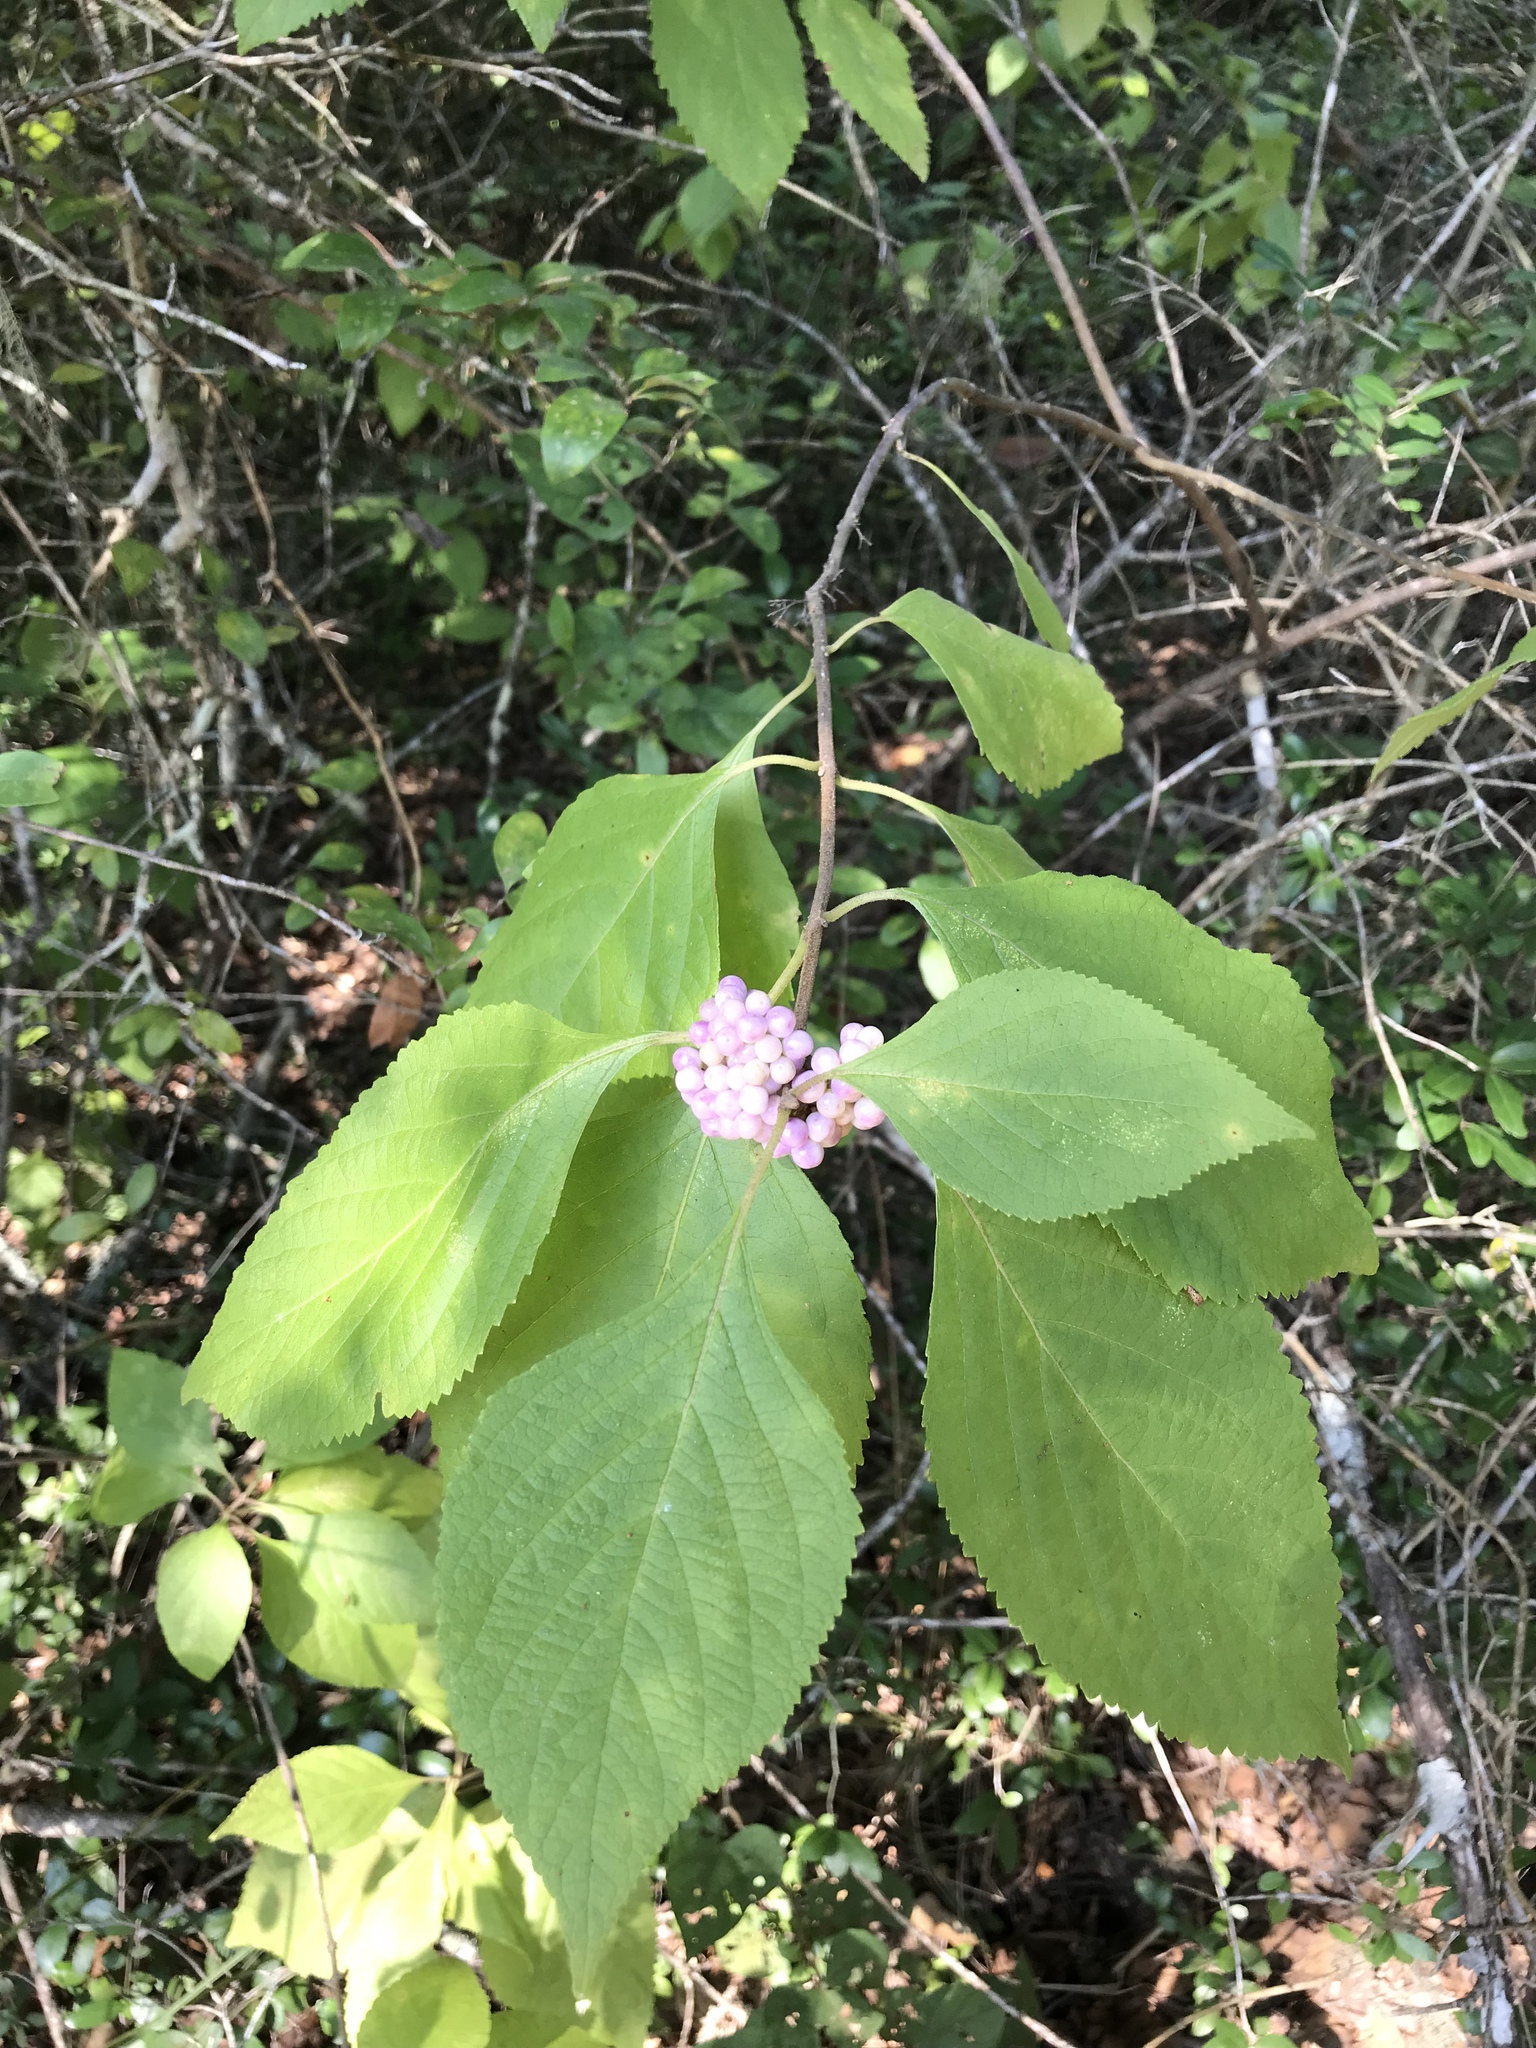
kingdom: Plantae
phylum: Tracheophyta
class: Magnoliopsida
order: Lamiales
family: Lamiaceae
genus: Callicarpa
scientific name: Callicarpa americana
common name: American beautyberry
